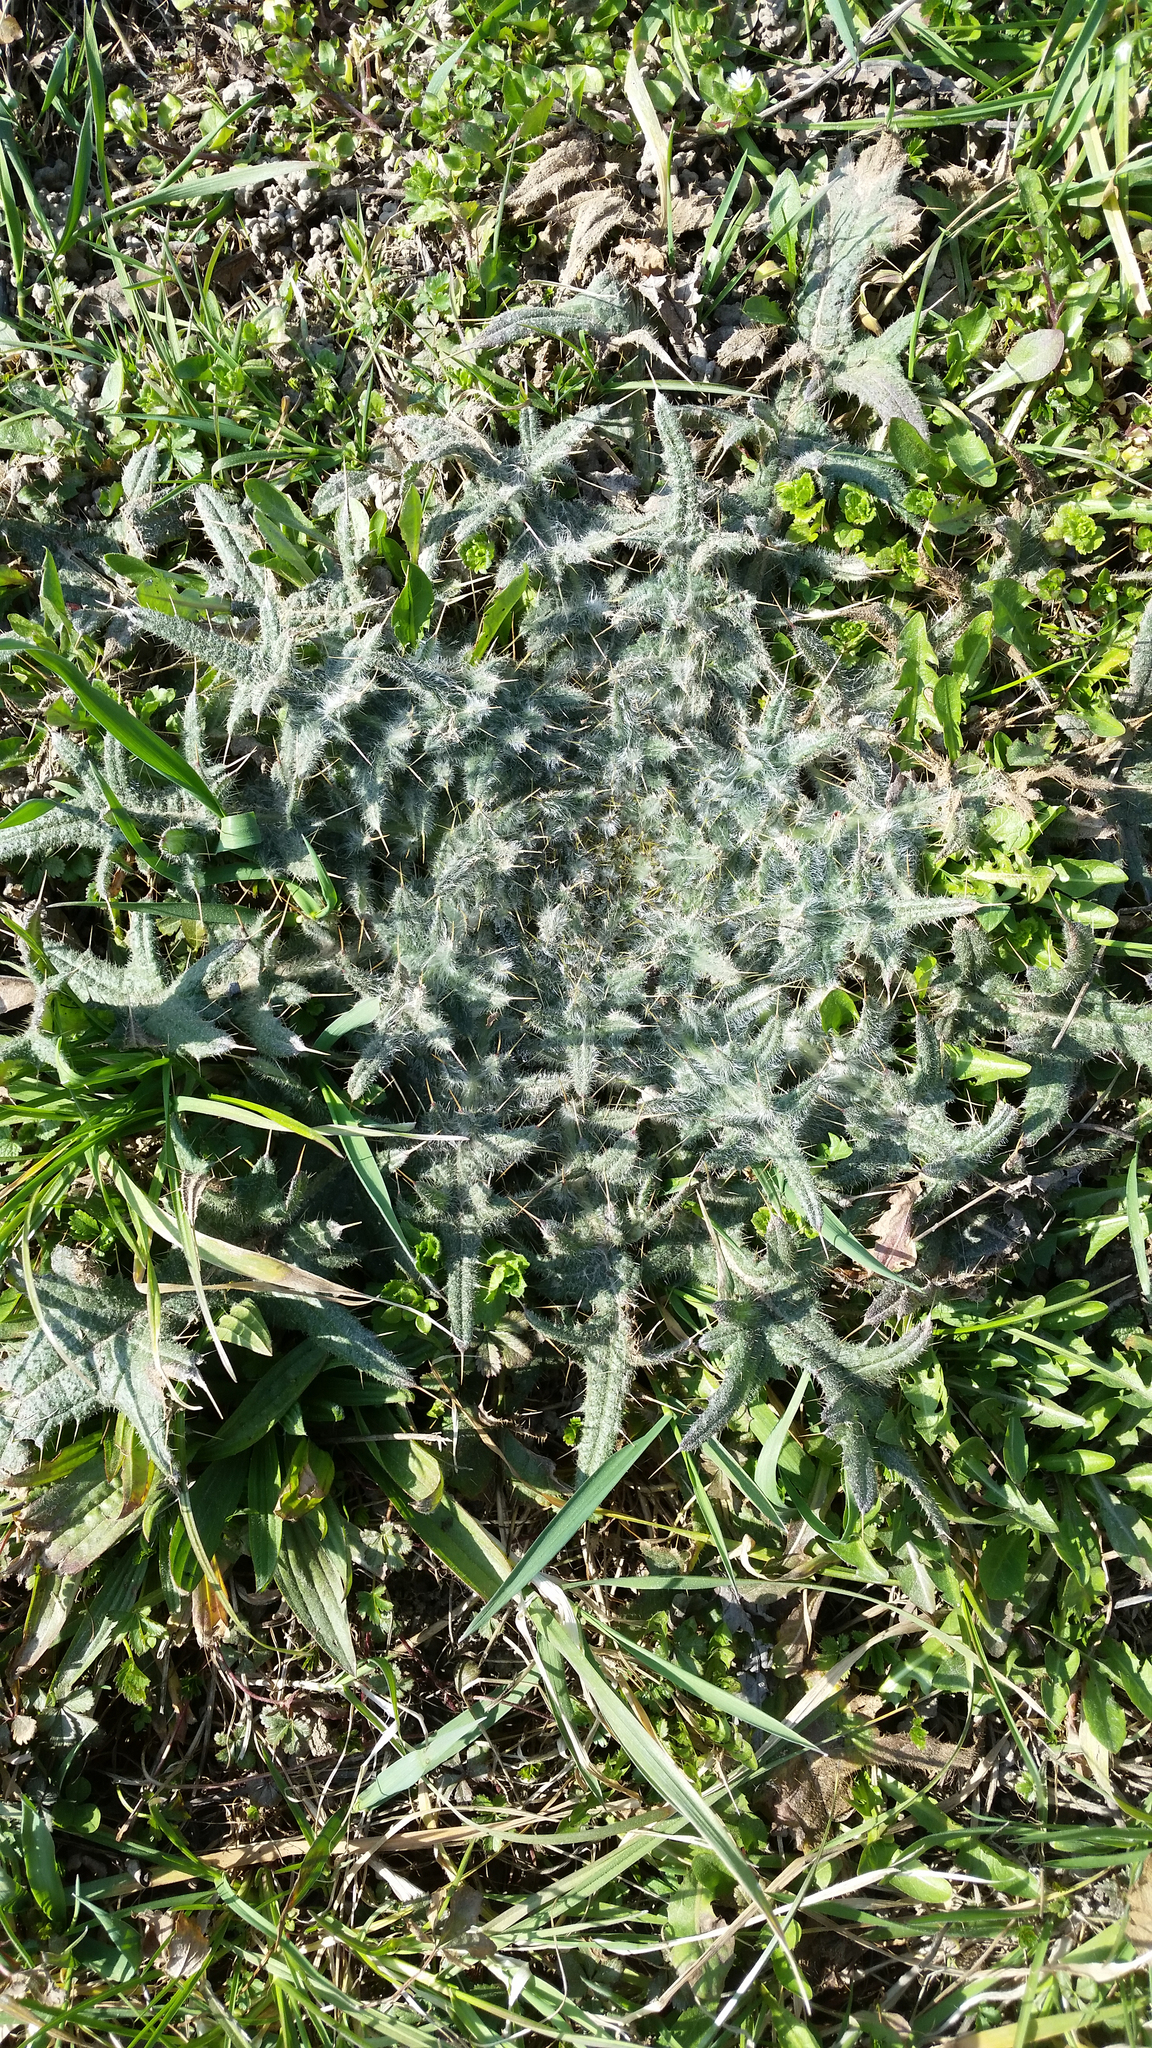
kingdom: Plantae
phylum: Tracheophyta
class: Magnoliopsida
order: Asterales
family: Asteraceae
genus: Cirsium
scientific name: Cirsium vulgare
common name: Bull thistle
